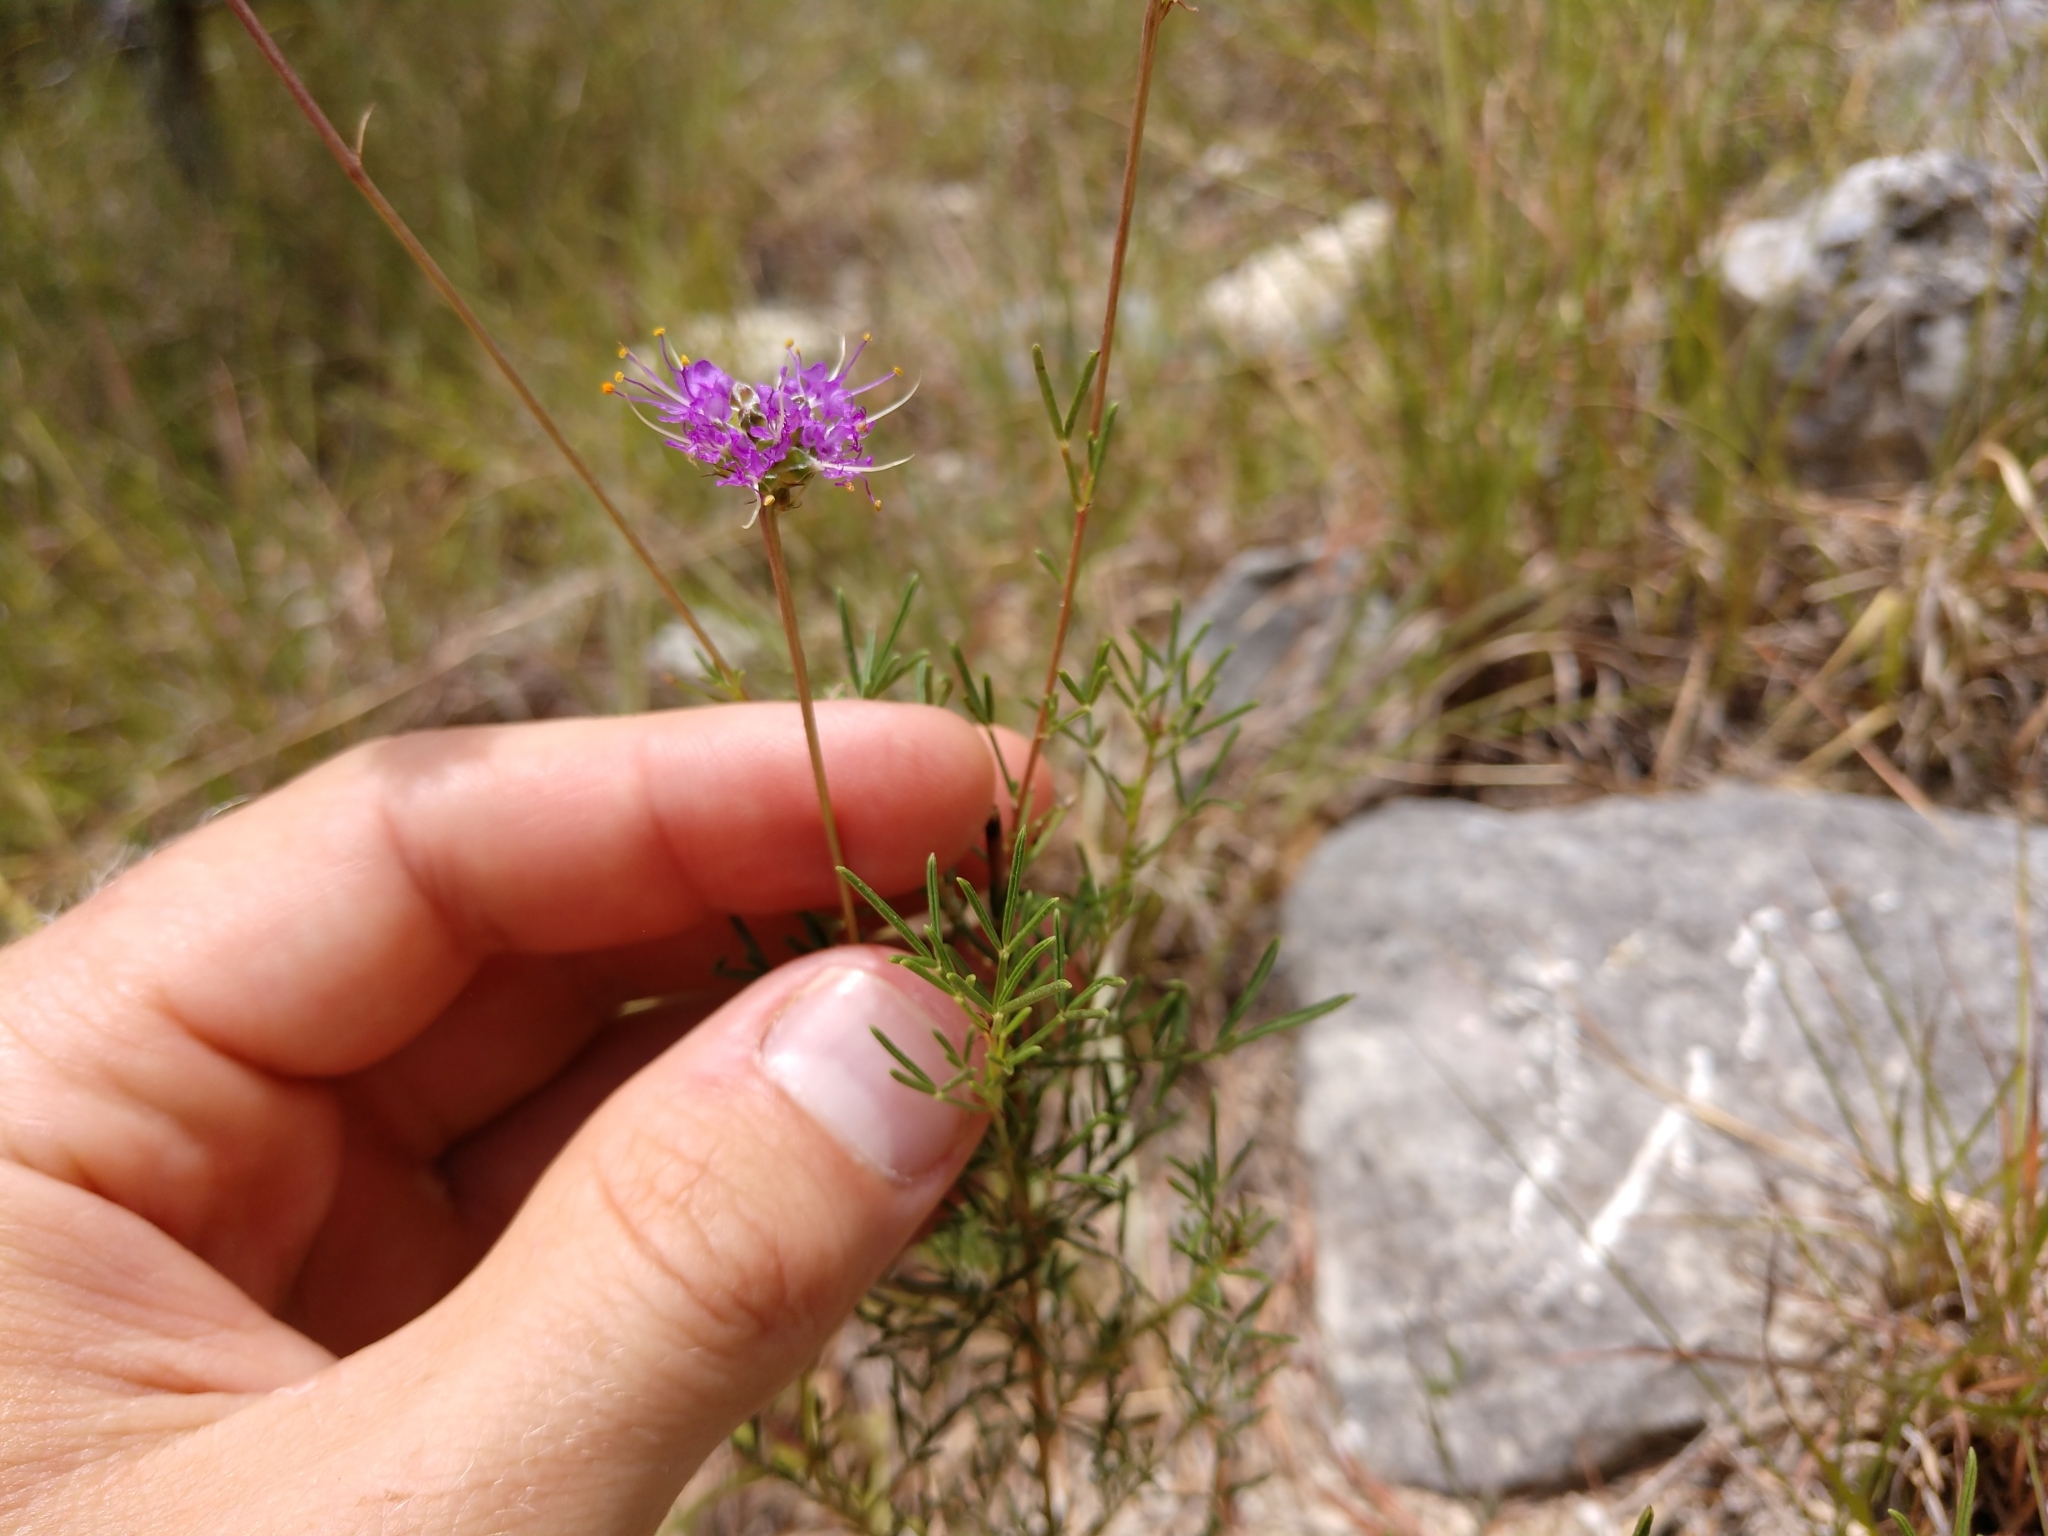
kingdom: Plantae
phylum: Tracheophyta
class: Magnoliopsida
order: Fabales
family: Fabaceae
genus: Dalea
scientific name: Dalea tenuis
